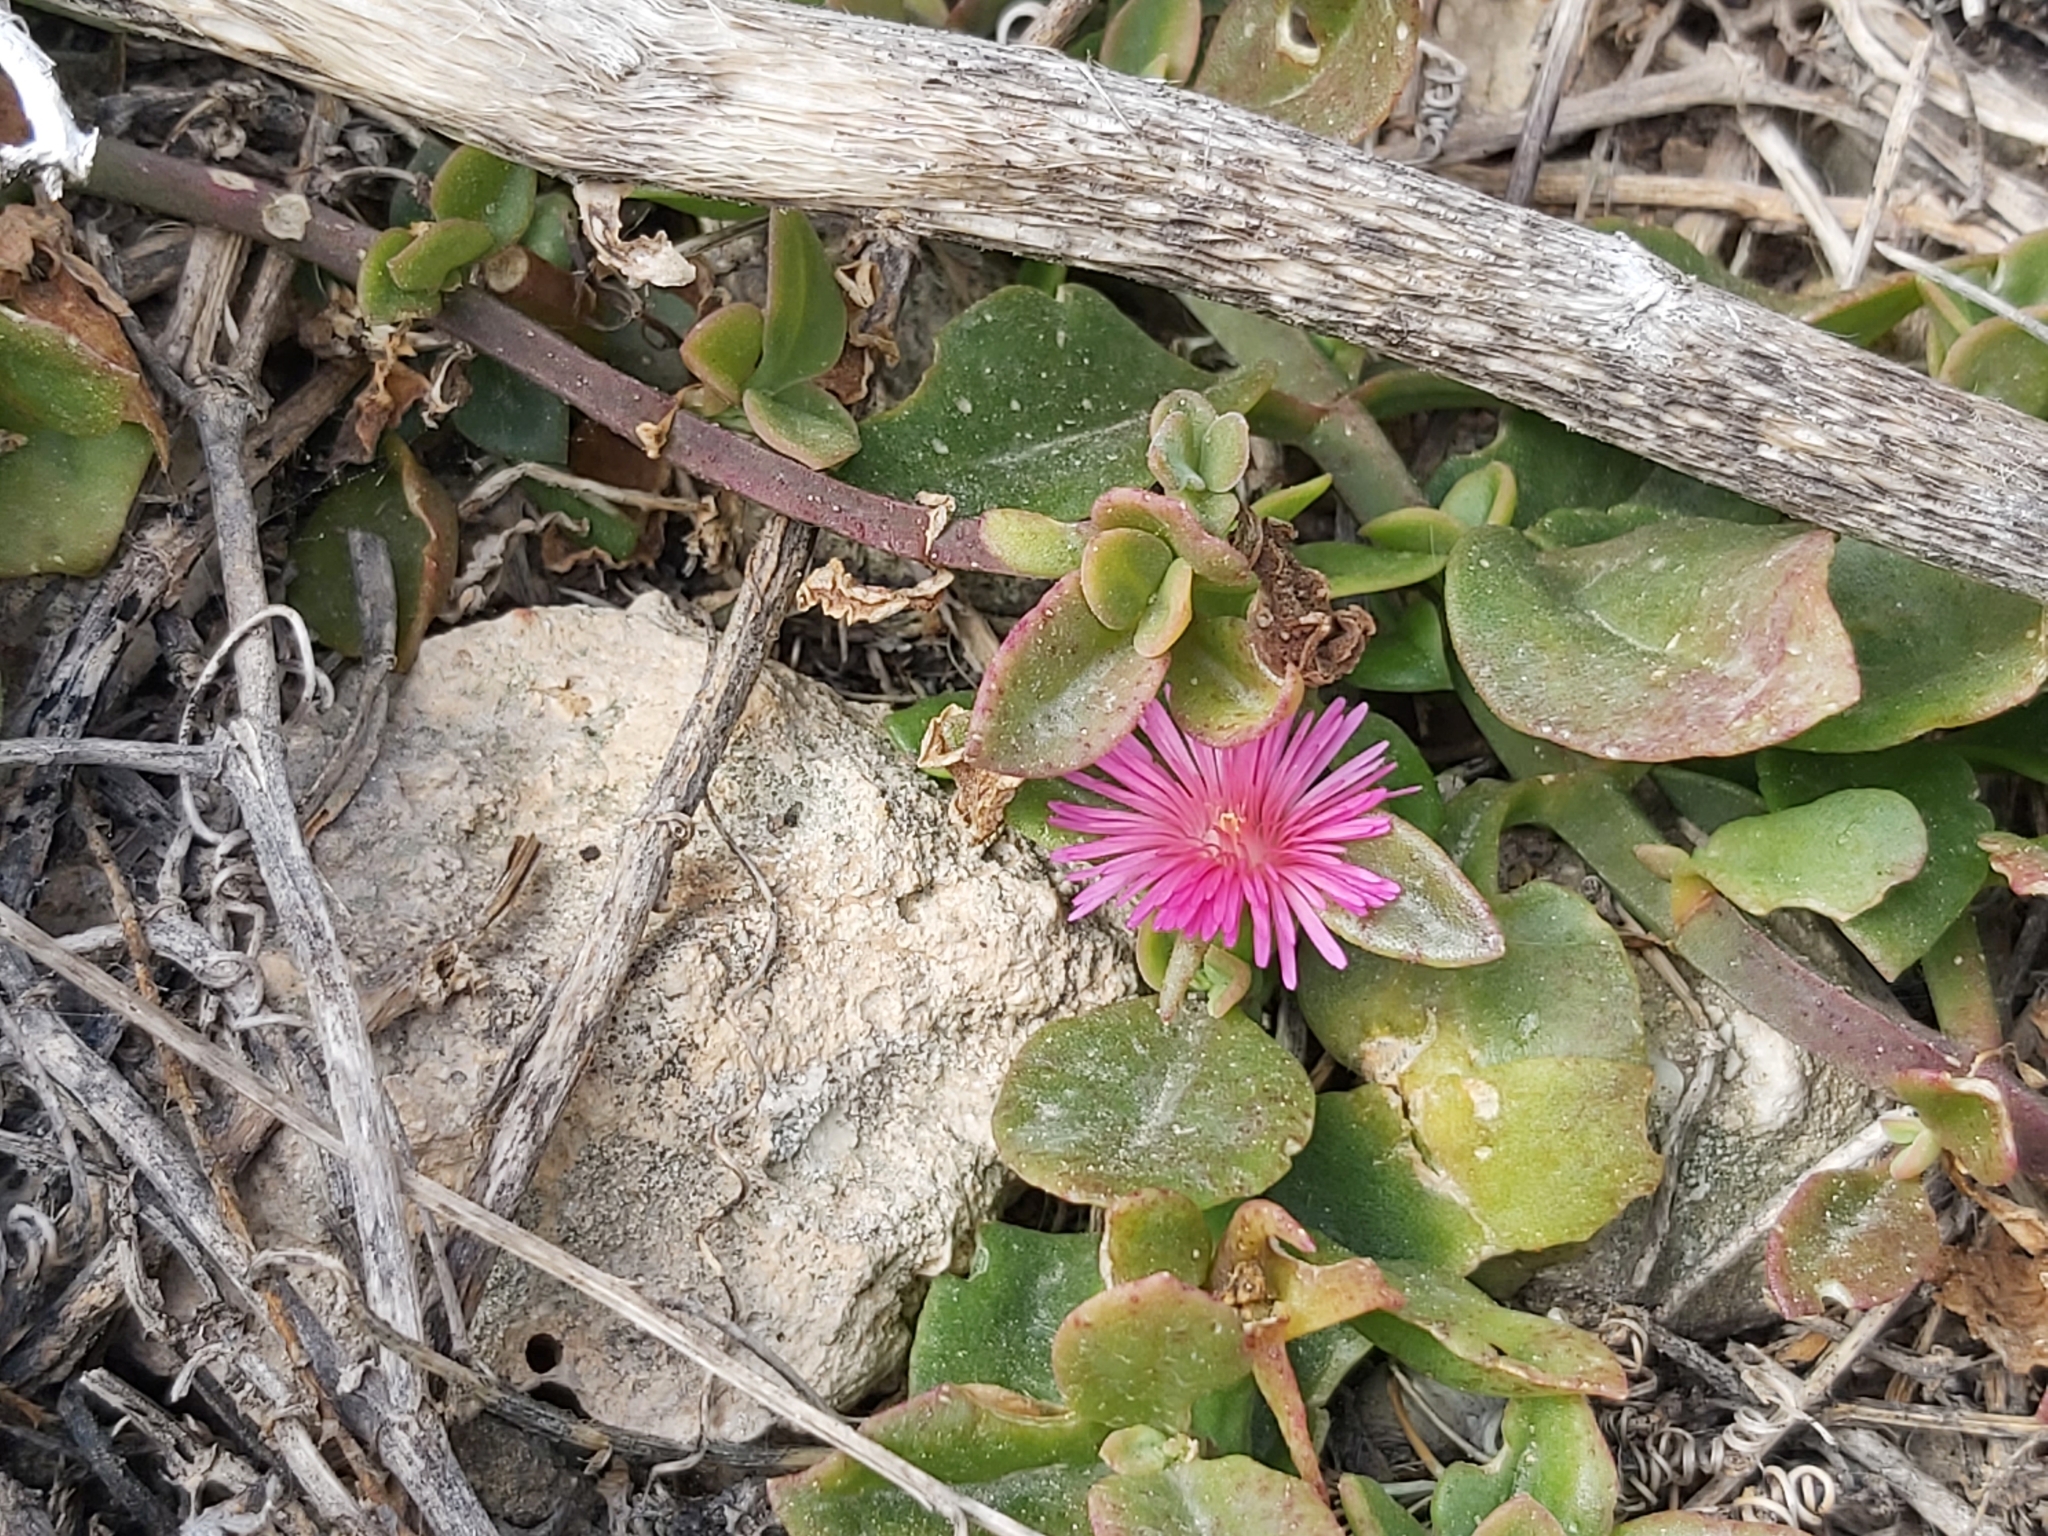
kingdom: Plantae
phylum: Tracheophyta
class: Magnoliopsida
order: Caryophyllales
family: Aizoaceae
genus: Mesembryanthemum
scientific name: Mesembryanthemum cordifolium
